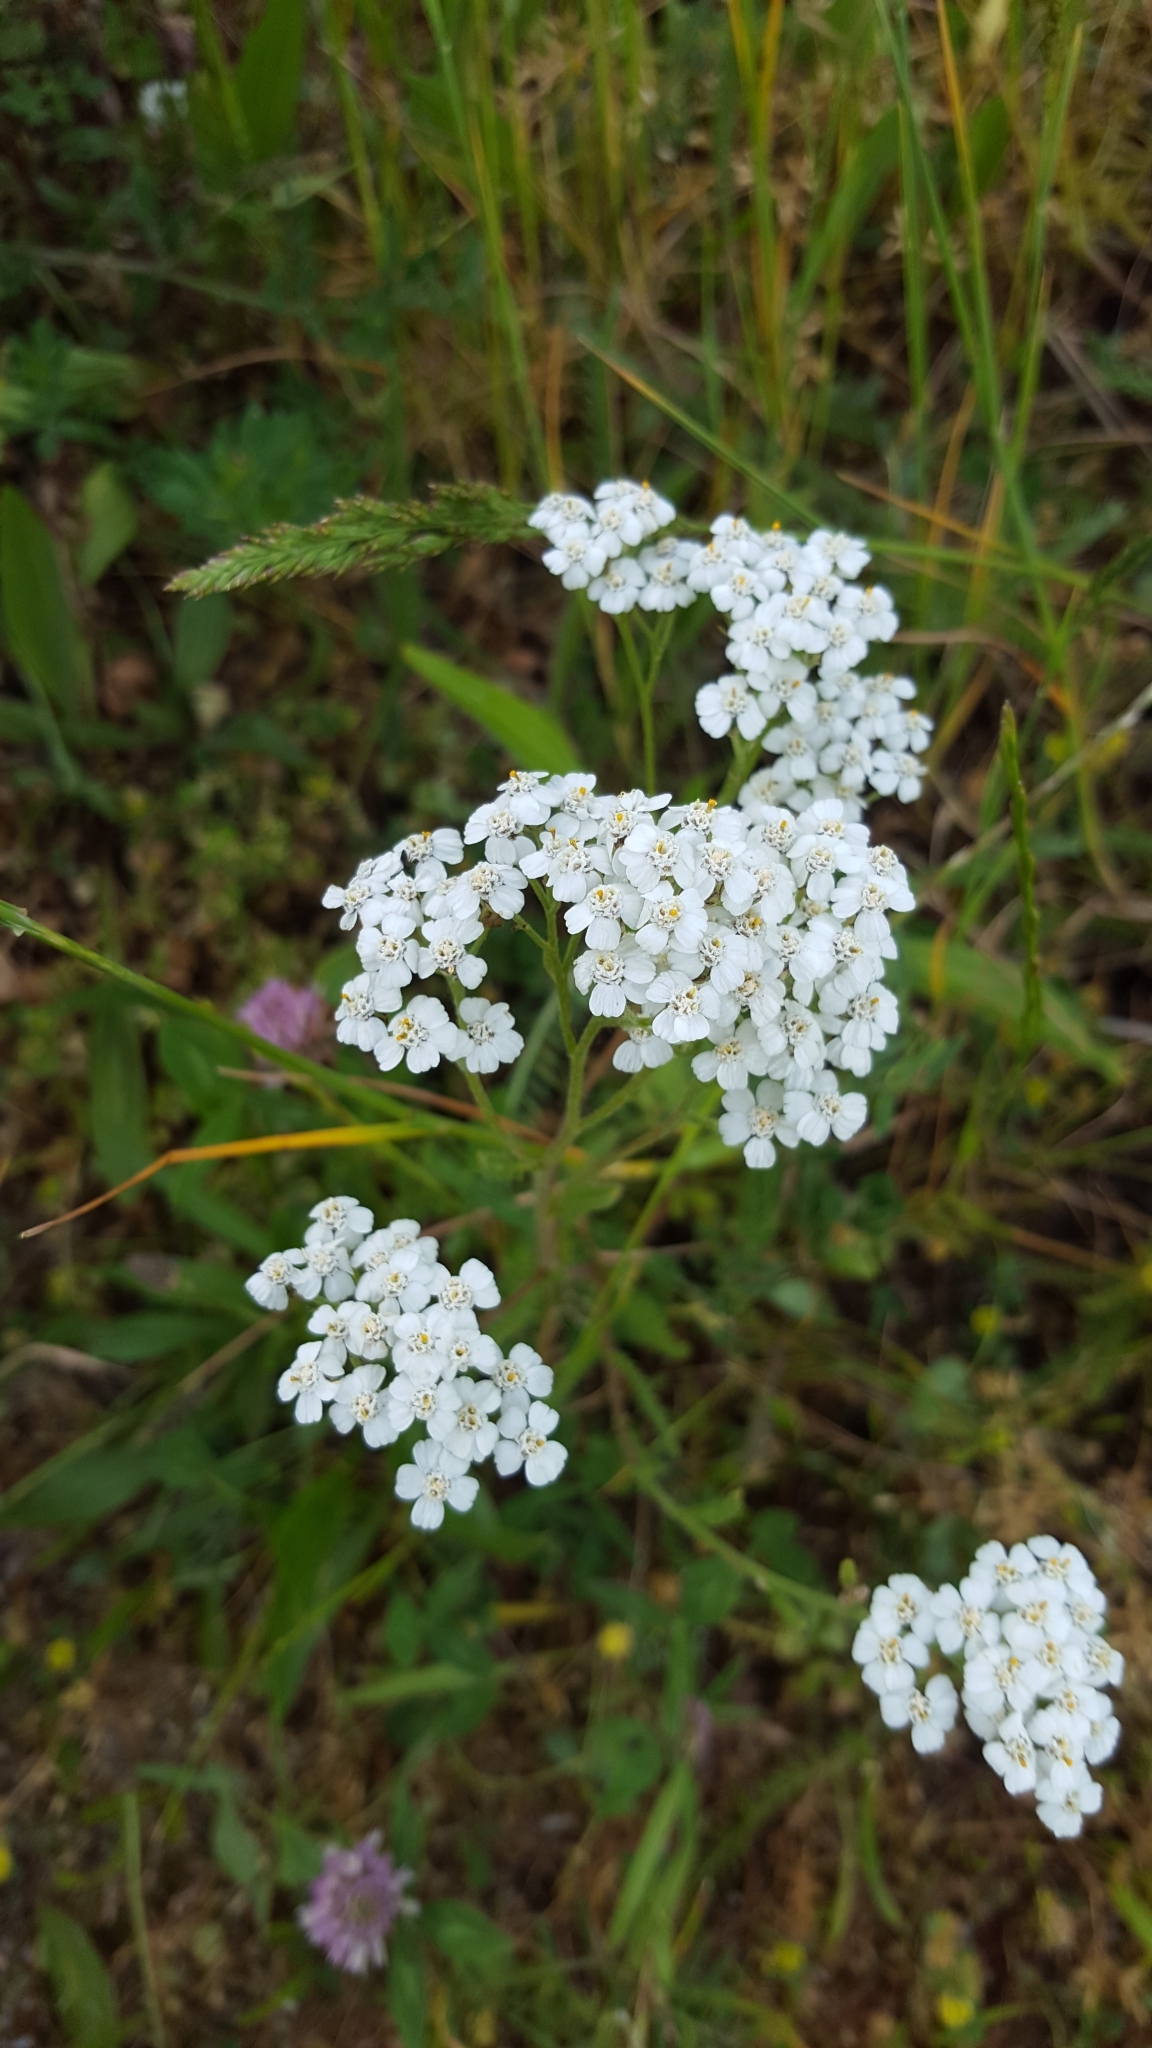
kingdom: Plantae
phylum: Tracheophyta
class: Magnoliopsida
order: Asterales
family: Asteraceae
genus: Achillea
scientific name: Achillea millefolium
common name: Yarrow
